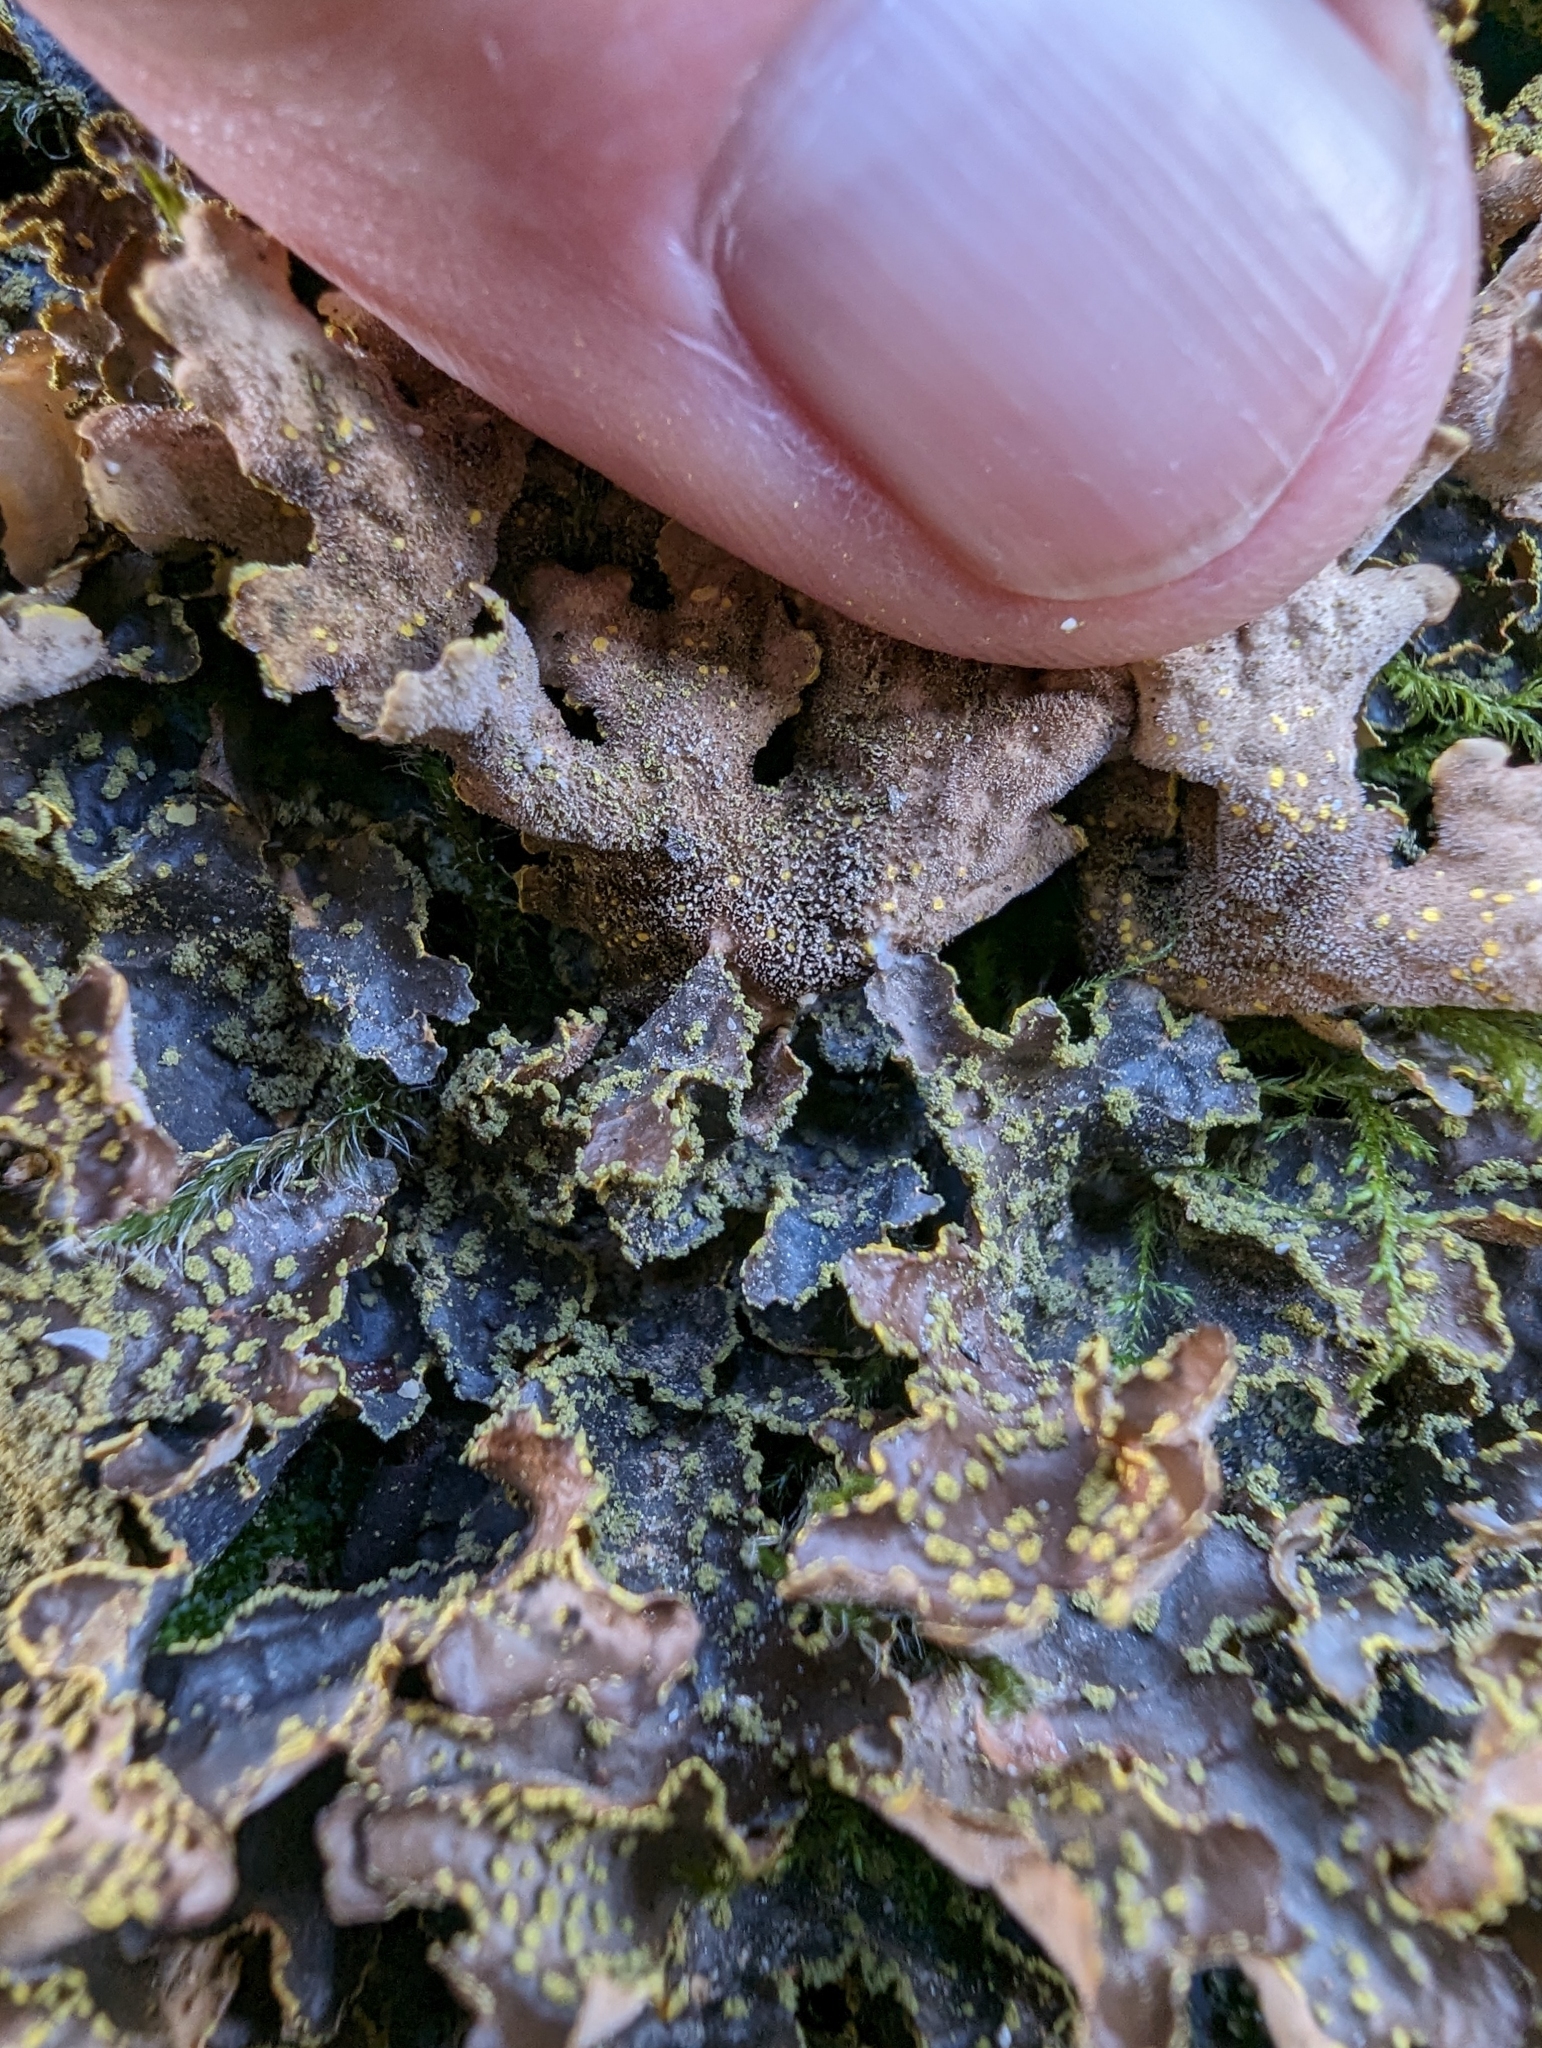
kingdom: Fungi
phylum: Ascomycota
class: Lecanoromycetes
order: Peltigerales
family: Lobariaceae
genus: Pseudocyphellaria
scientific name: Pseudocyphellaria citrina
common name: Golden specklebelly
